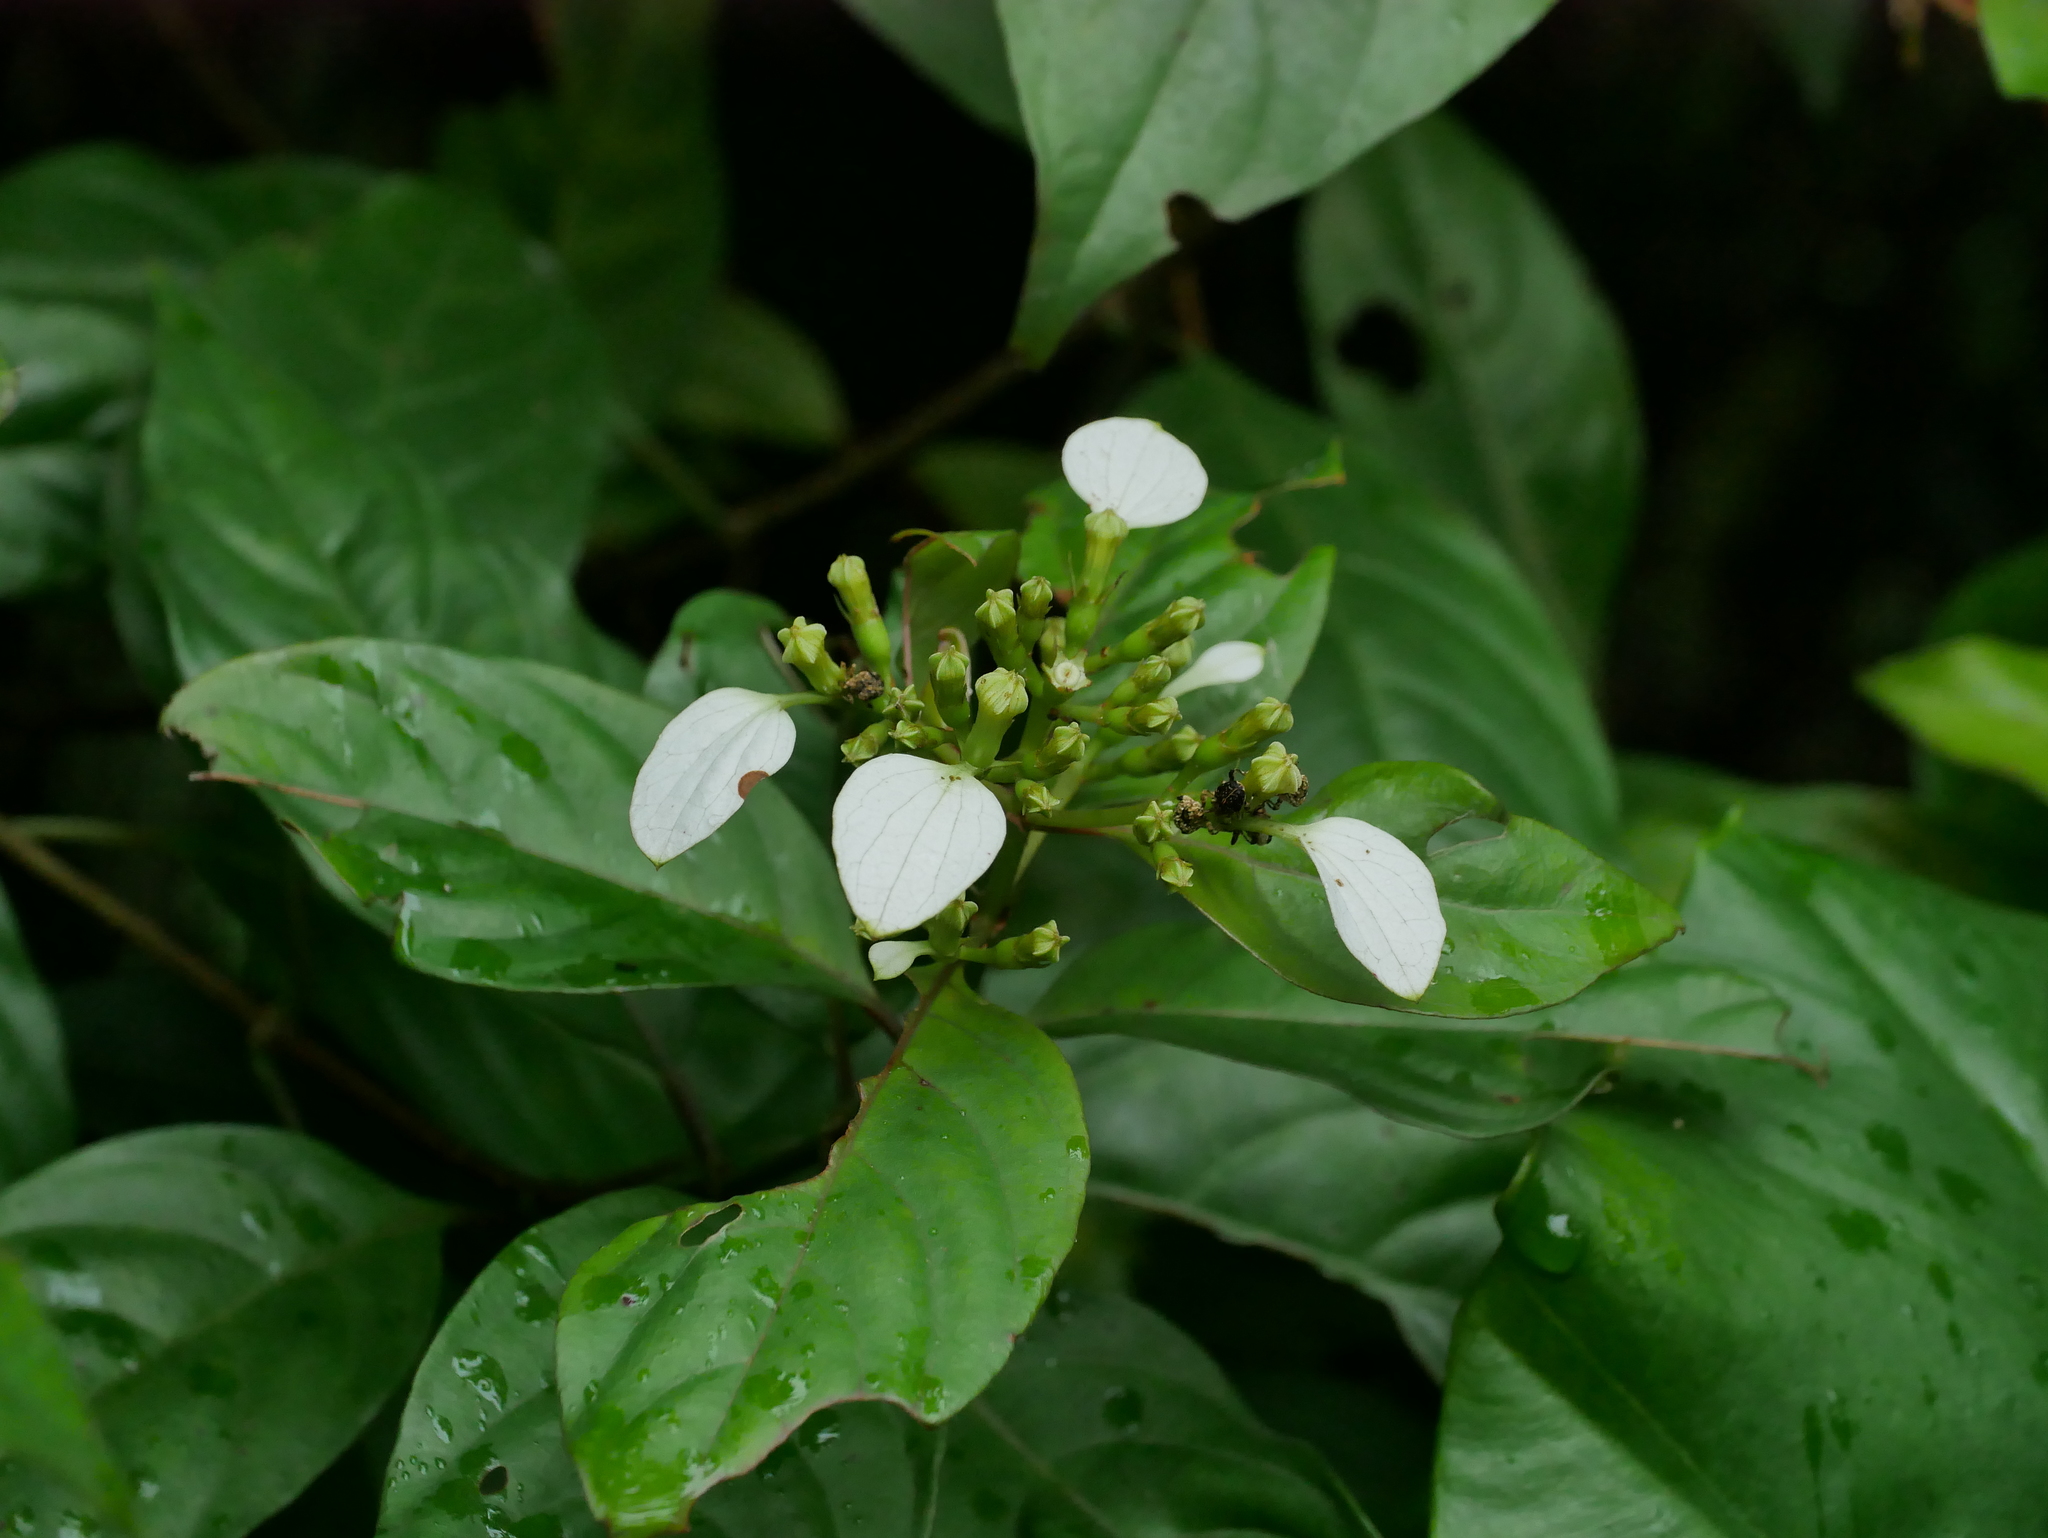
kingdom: Plantae
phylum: Tracheophyta
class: Magnoliopsida
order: Gentianales
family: Rubiaceae
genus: Mussaenda
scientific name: Mussaenda parviflora
